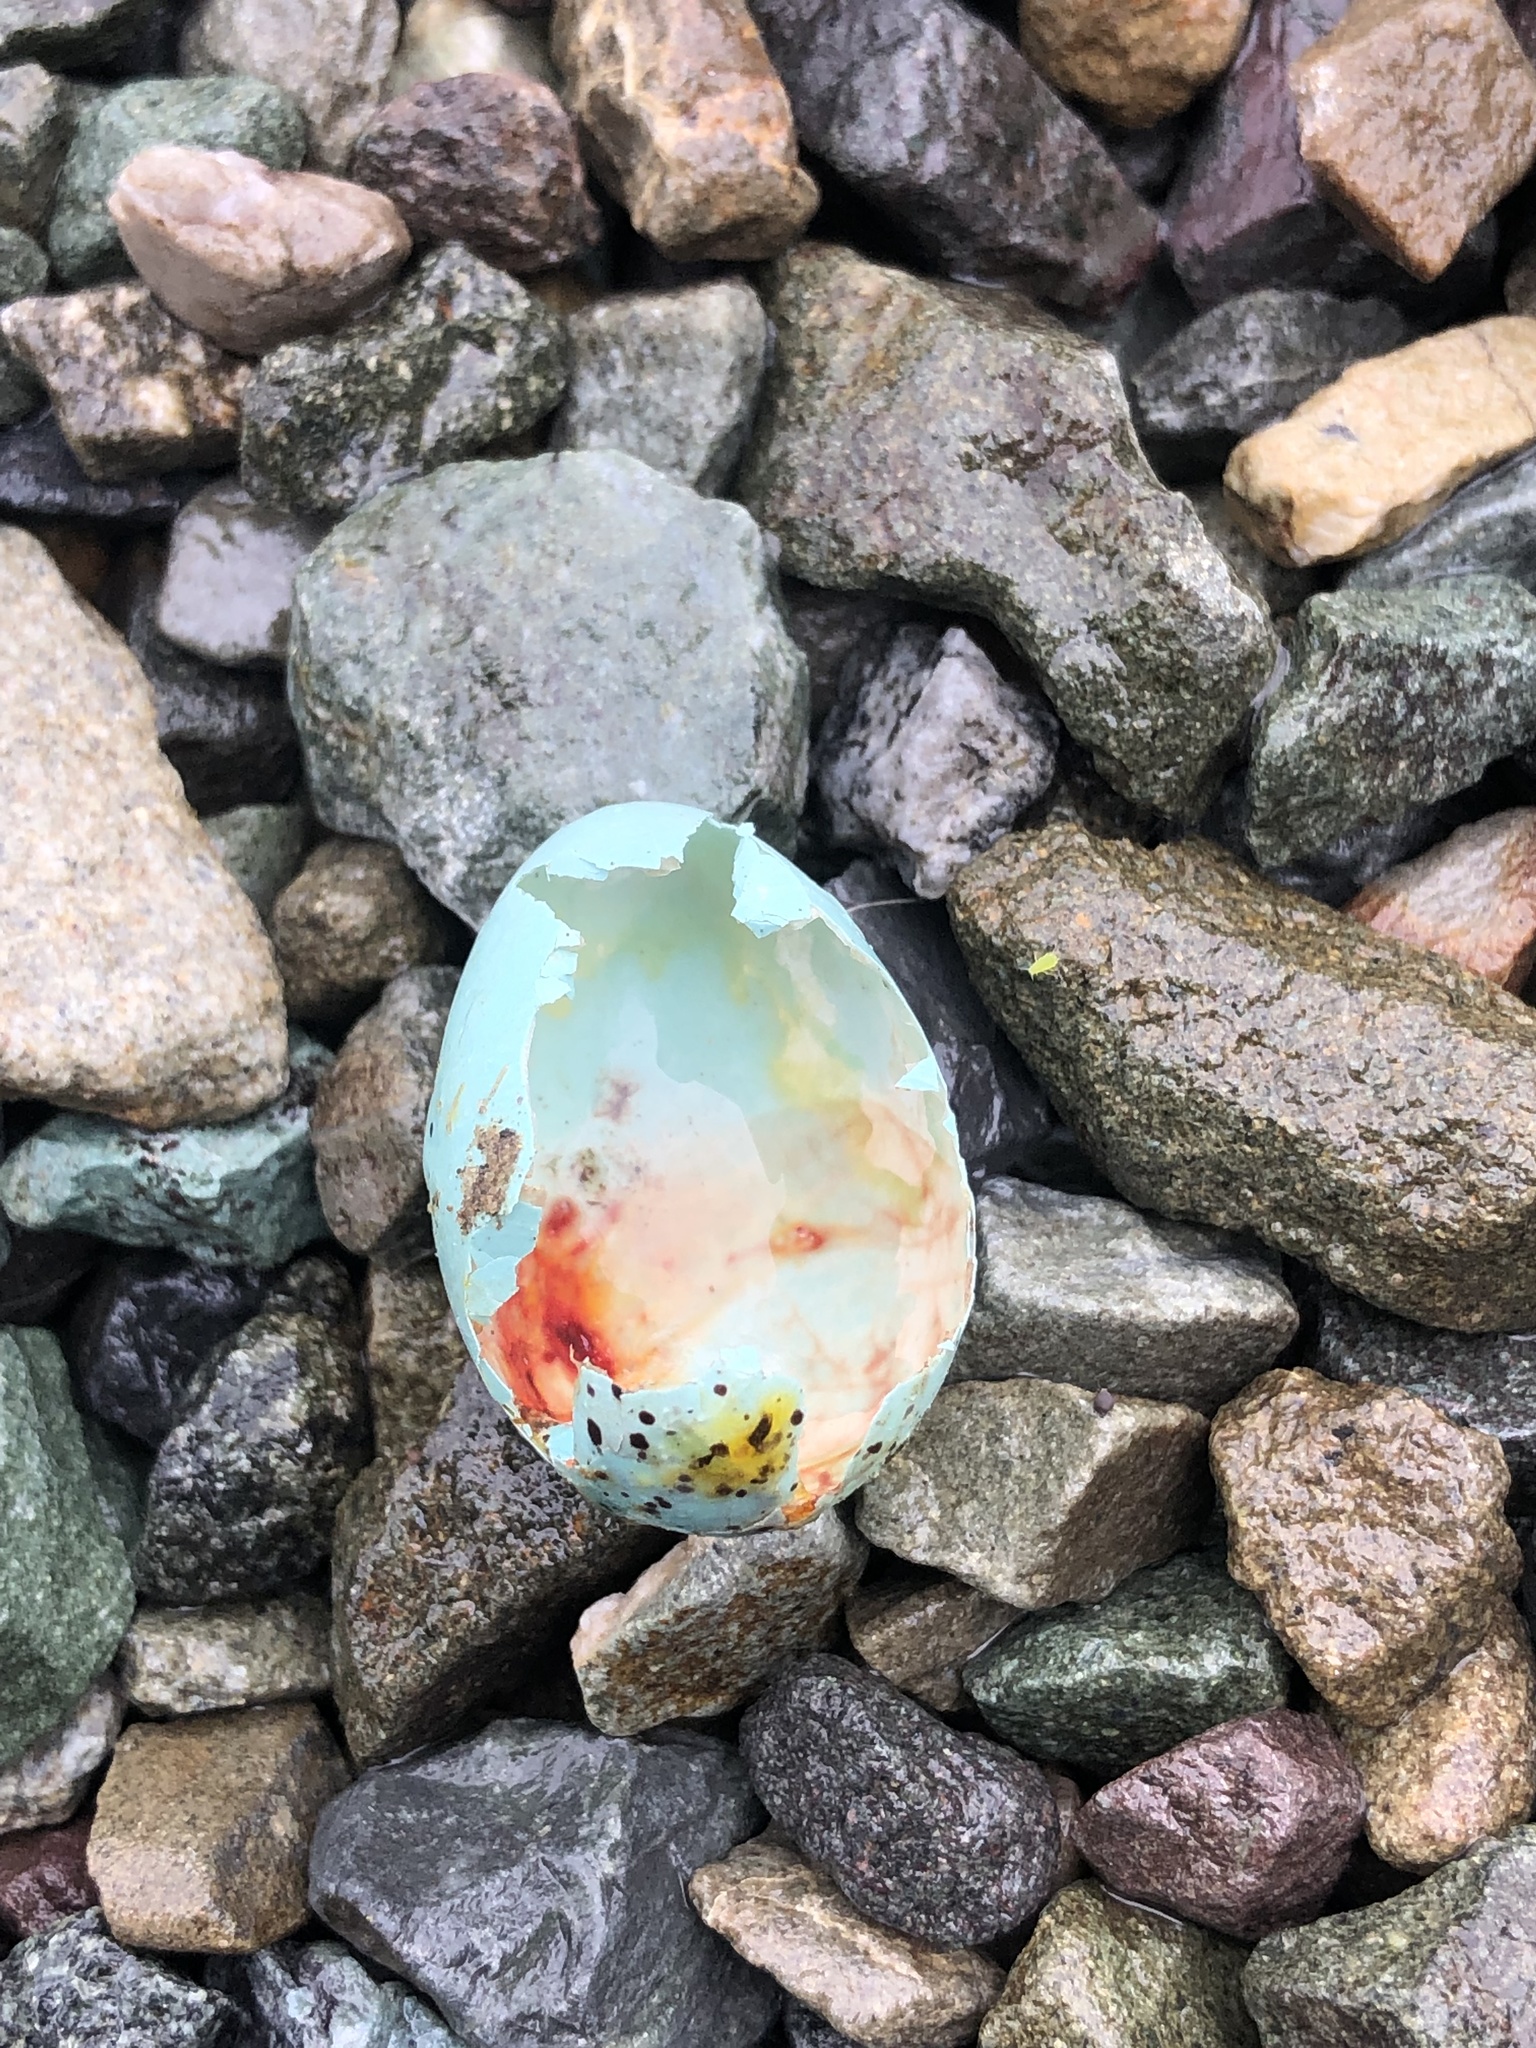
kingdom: Animalia
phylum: Chordata
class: Aves
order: Passeriformes
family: Turdidae
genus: Turdus
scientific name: Turdus philomelos
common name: Song thrush
